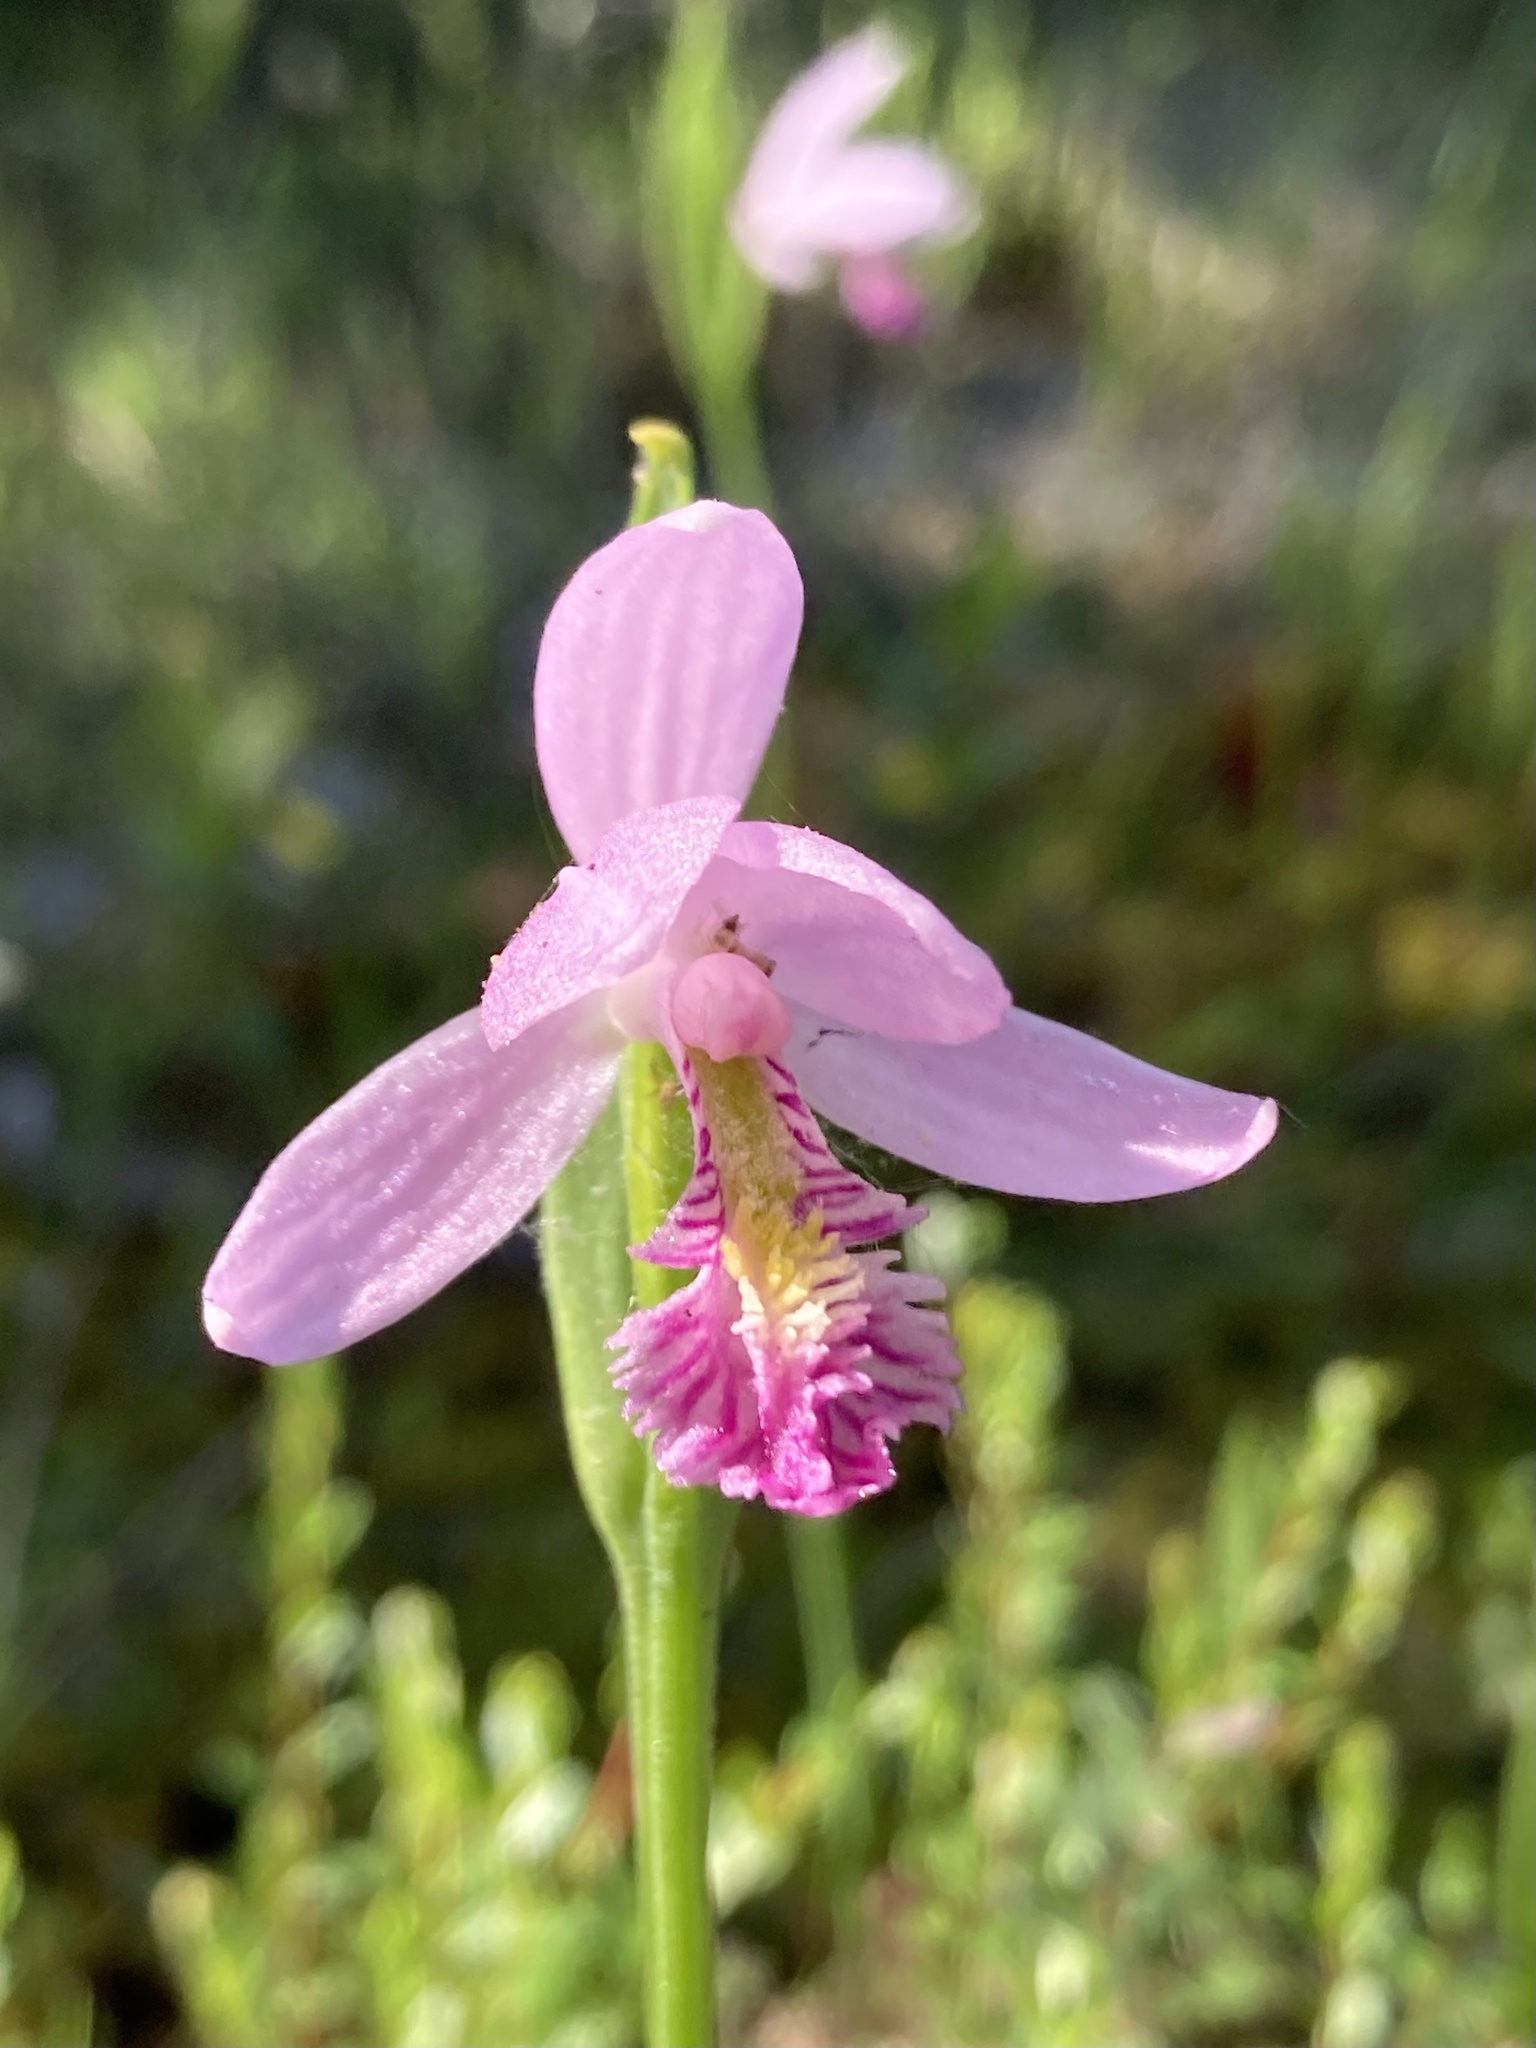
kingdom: Plantae
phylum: Tracheophyta
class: Liliopsida
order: Asparagales
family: Orchidaceae
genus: Pogonia
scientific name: Pogonia ophioglossoides
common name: Rose pogonia
